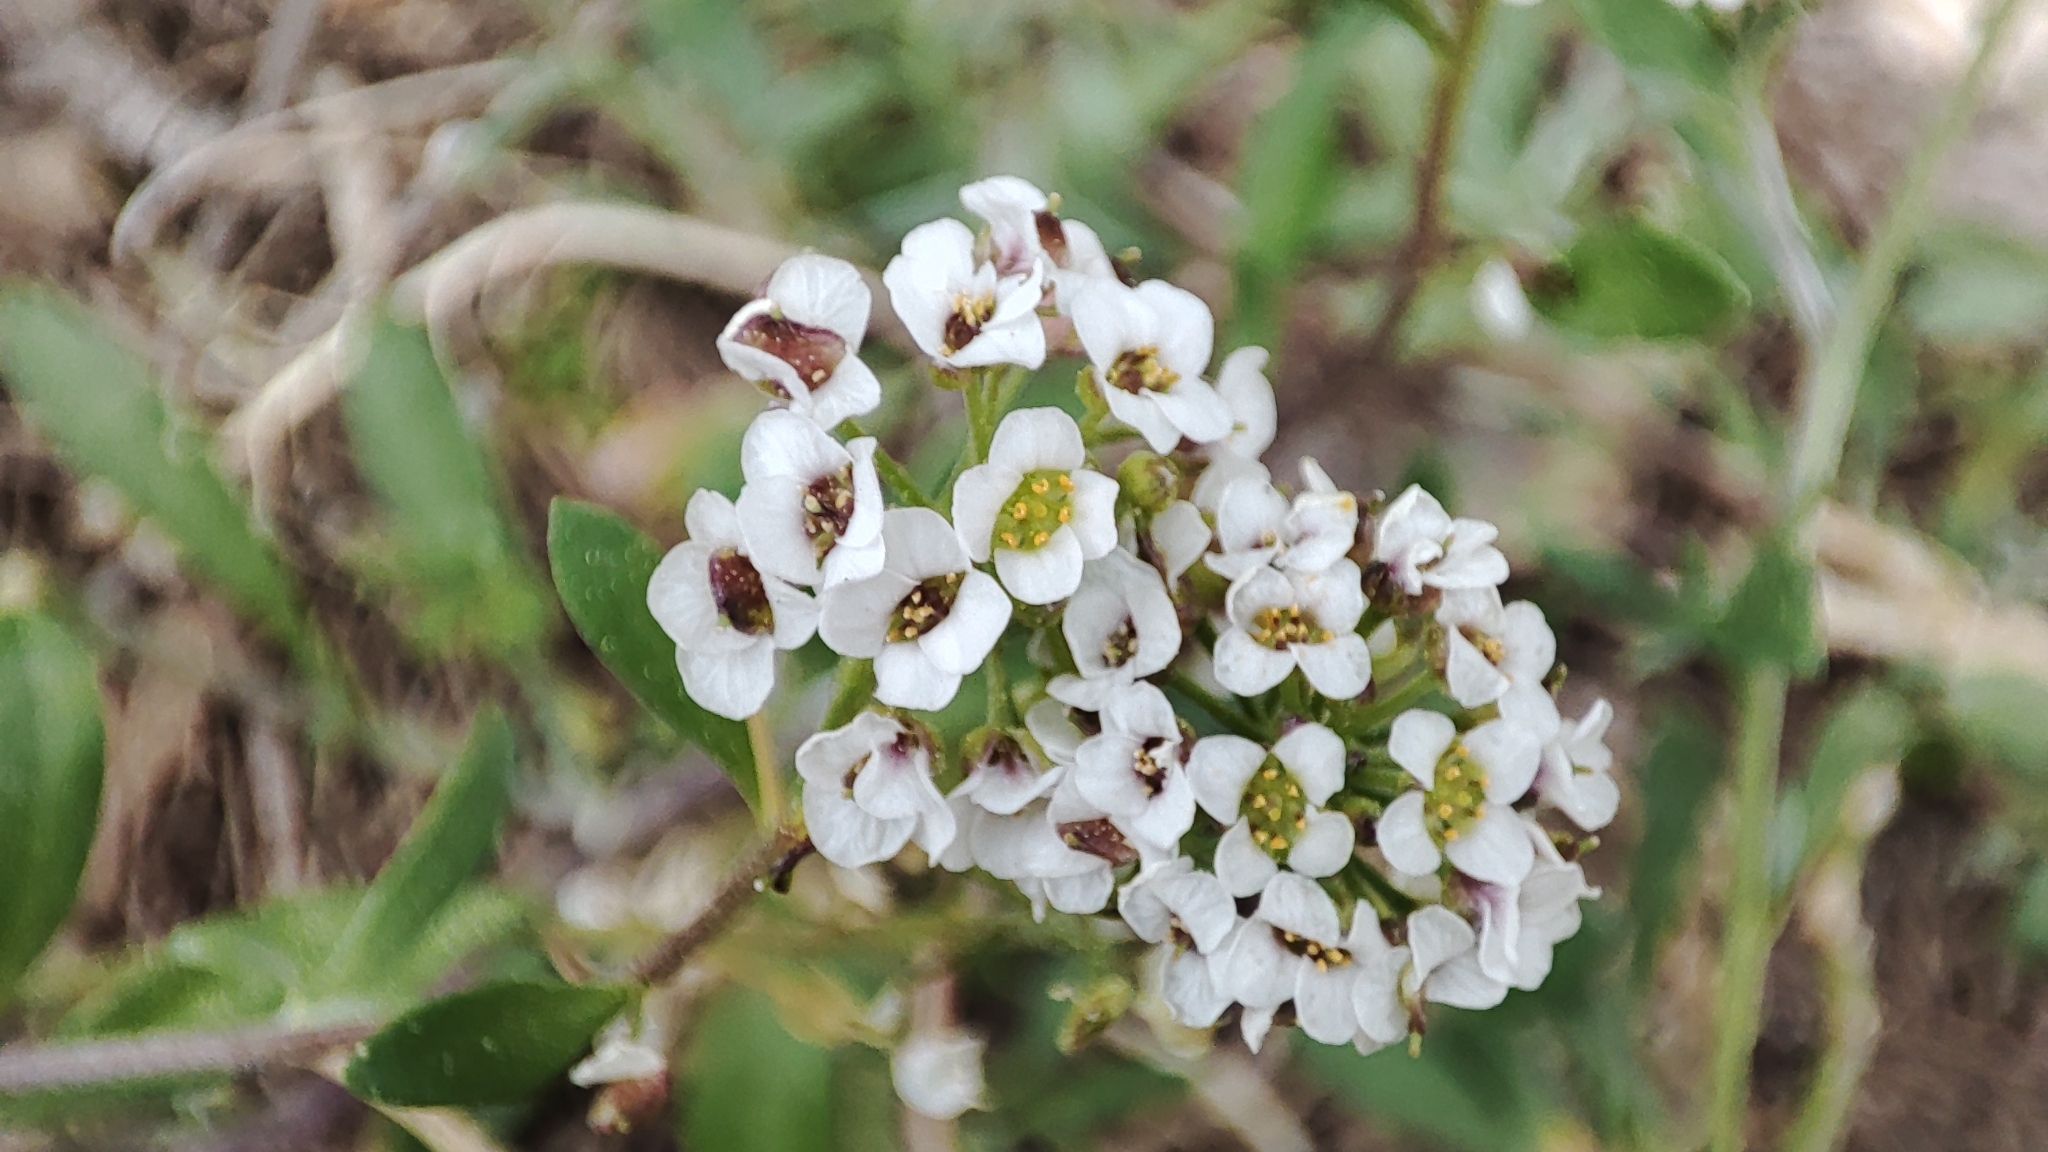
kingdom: Plantae
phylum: Tracheophyta
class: Magnoliopsida
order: Brassicales
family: Brassicaceae
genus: Lobularia
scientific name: Lobularia maritima
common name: Sweet alison
